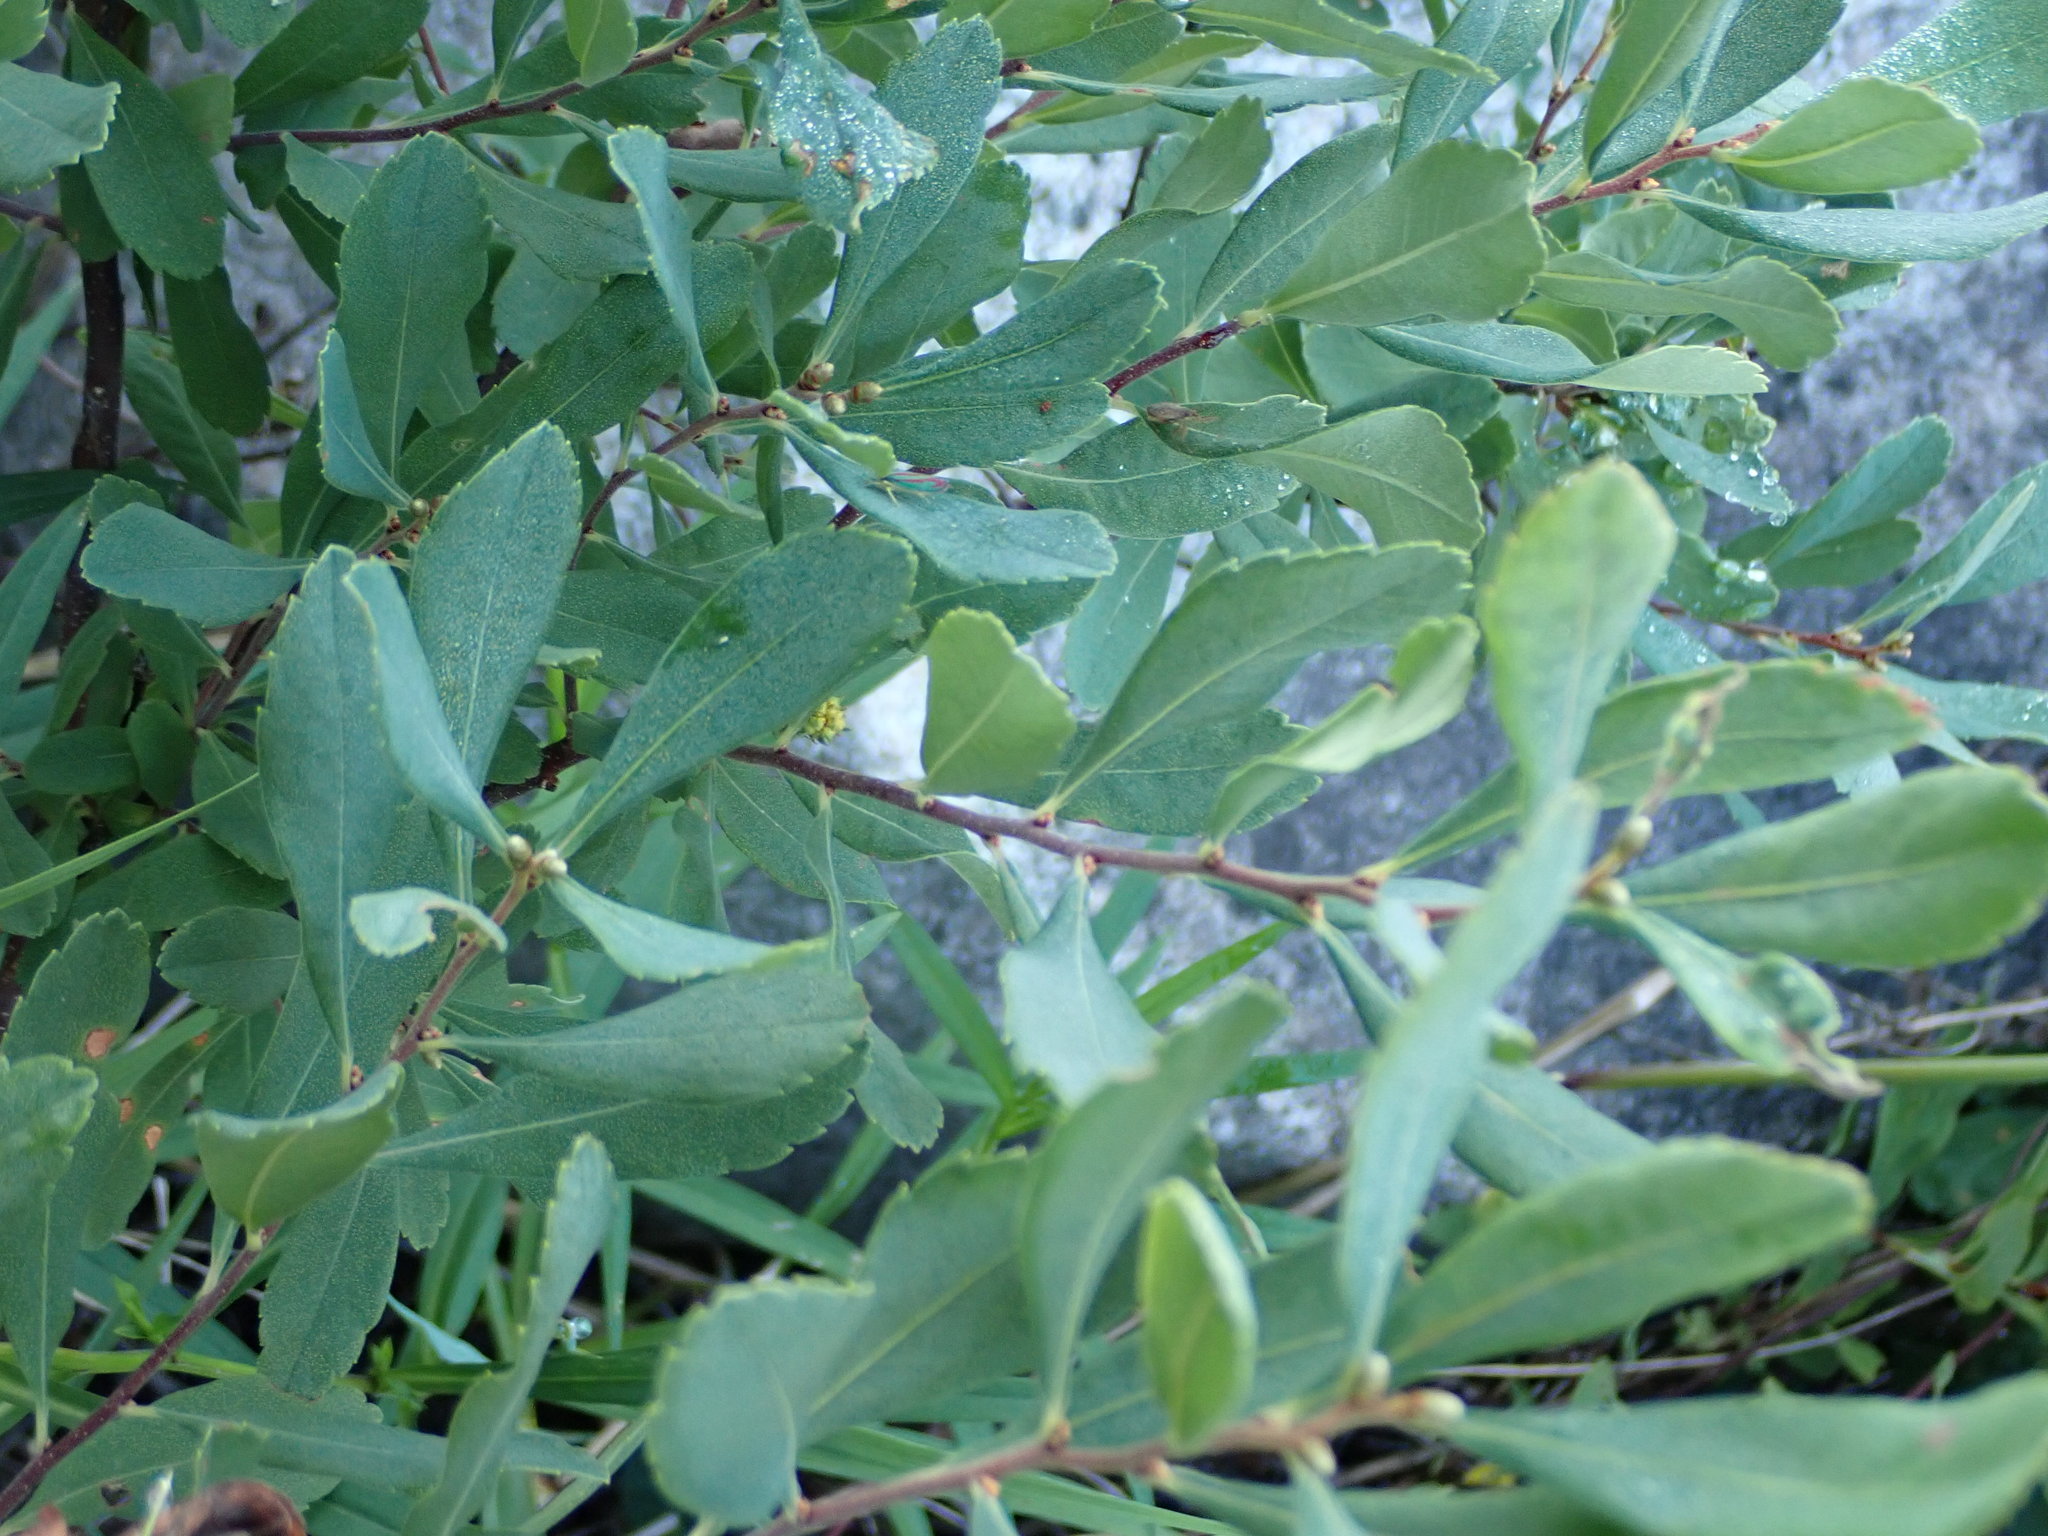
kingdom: Plantae
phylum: Tracheophyta
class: Magnoliopsida
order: Fagales
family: Myricaceae
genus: Myrica
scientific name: Myrica gale
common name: Sweet gale
